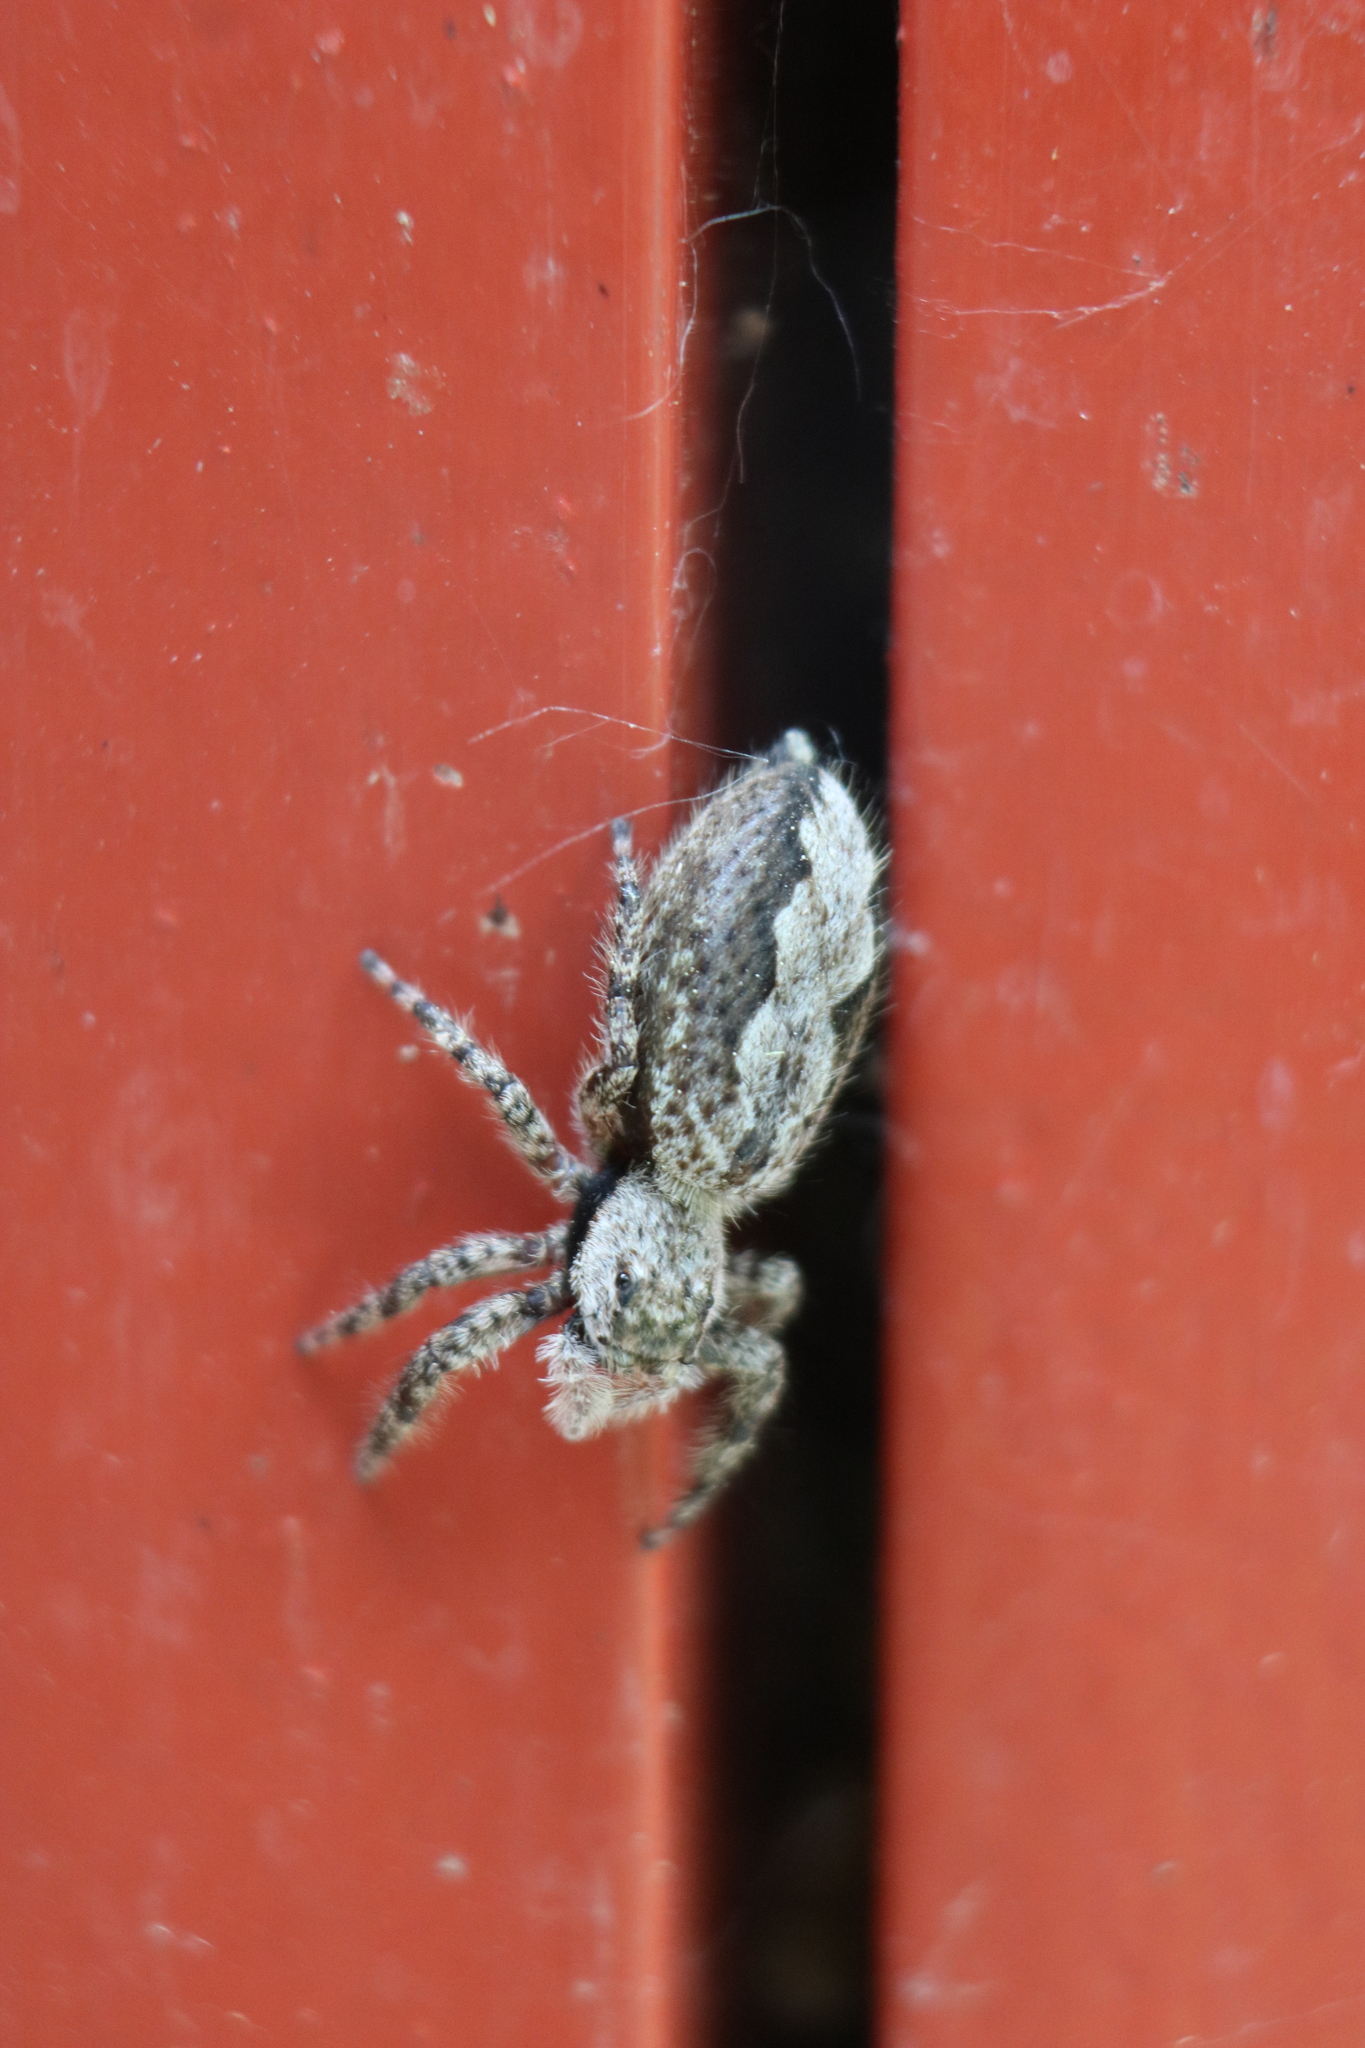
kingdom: Animalia
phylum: Arthropoda
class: Arachnida
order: Araneae
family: Salticidae
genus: Platycryptus
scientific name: Platycryptus undatus
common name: Tan jumping spider
